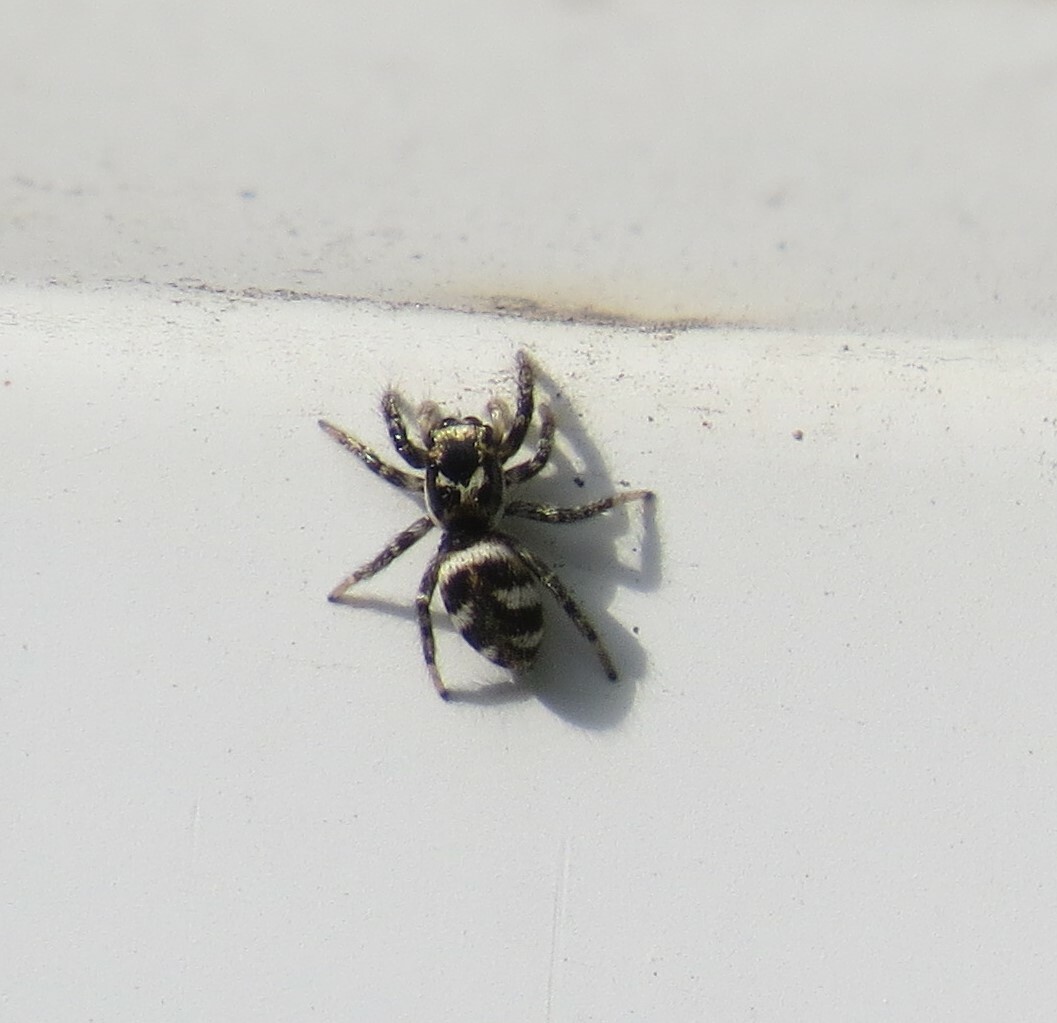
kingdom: Animalia
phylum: Arthropoda
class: Arachnida
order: Araneae
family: Salticidae
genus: Salticus
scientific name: Salticus scenicus
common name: Zebra jumper
